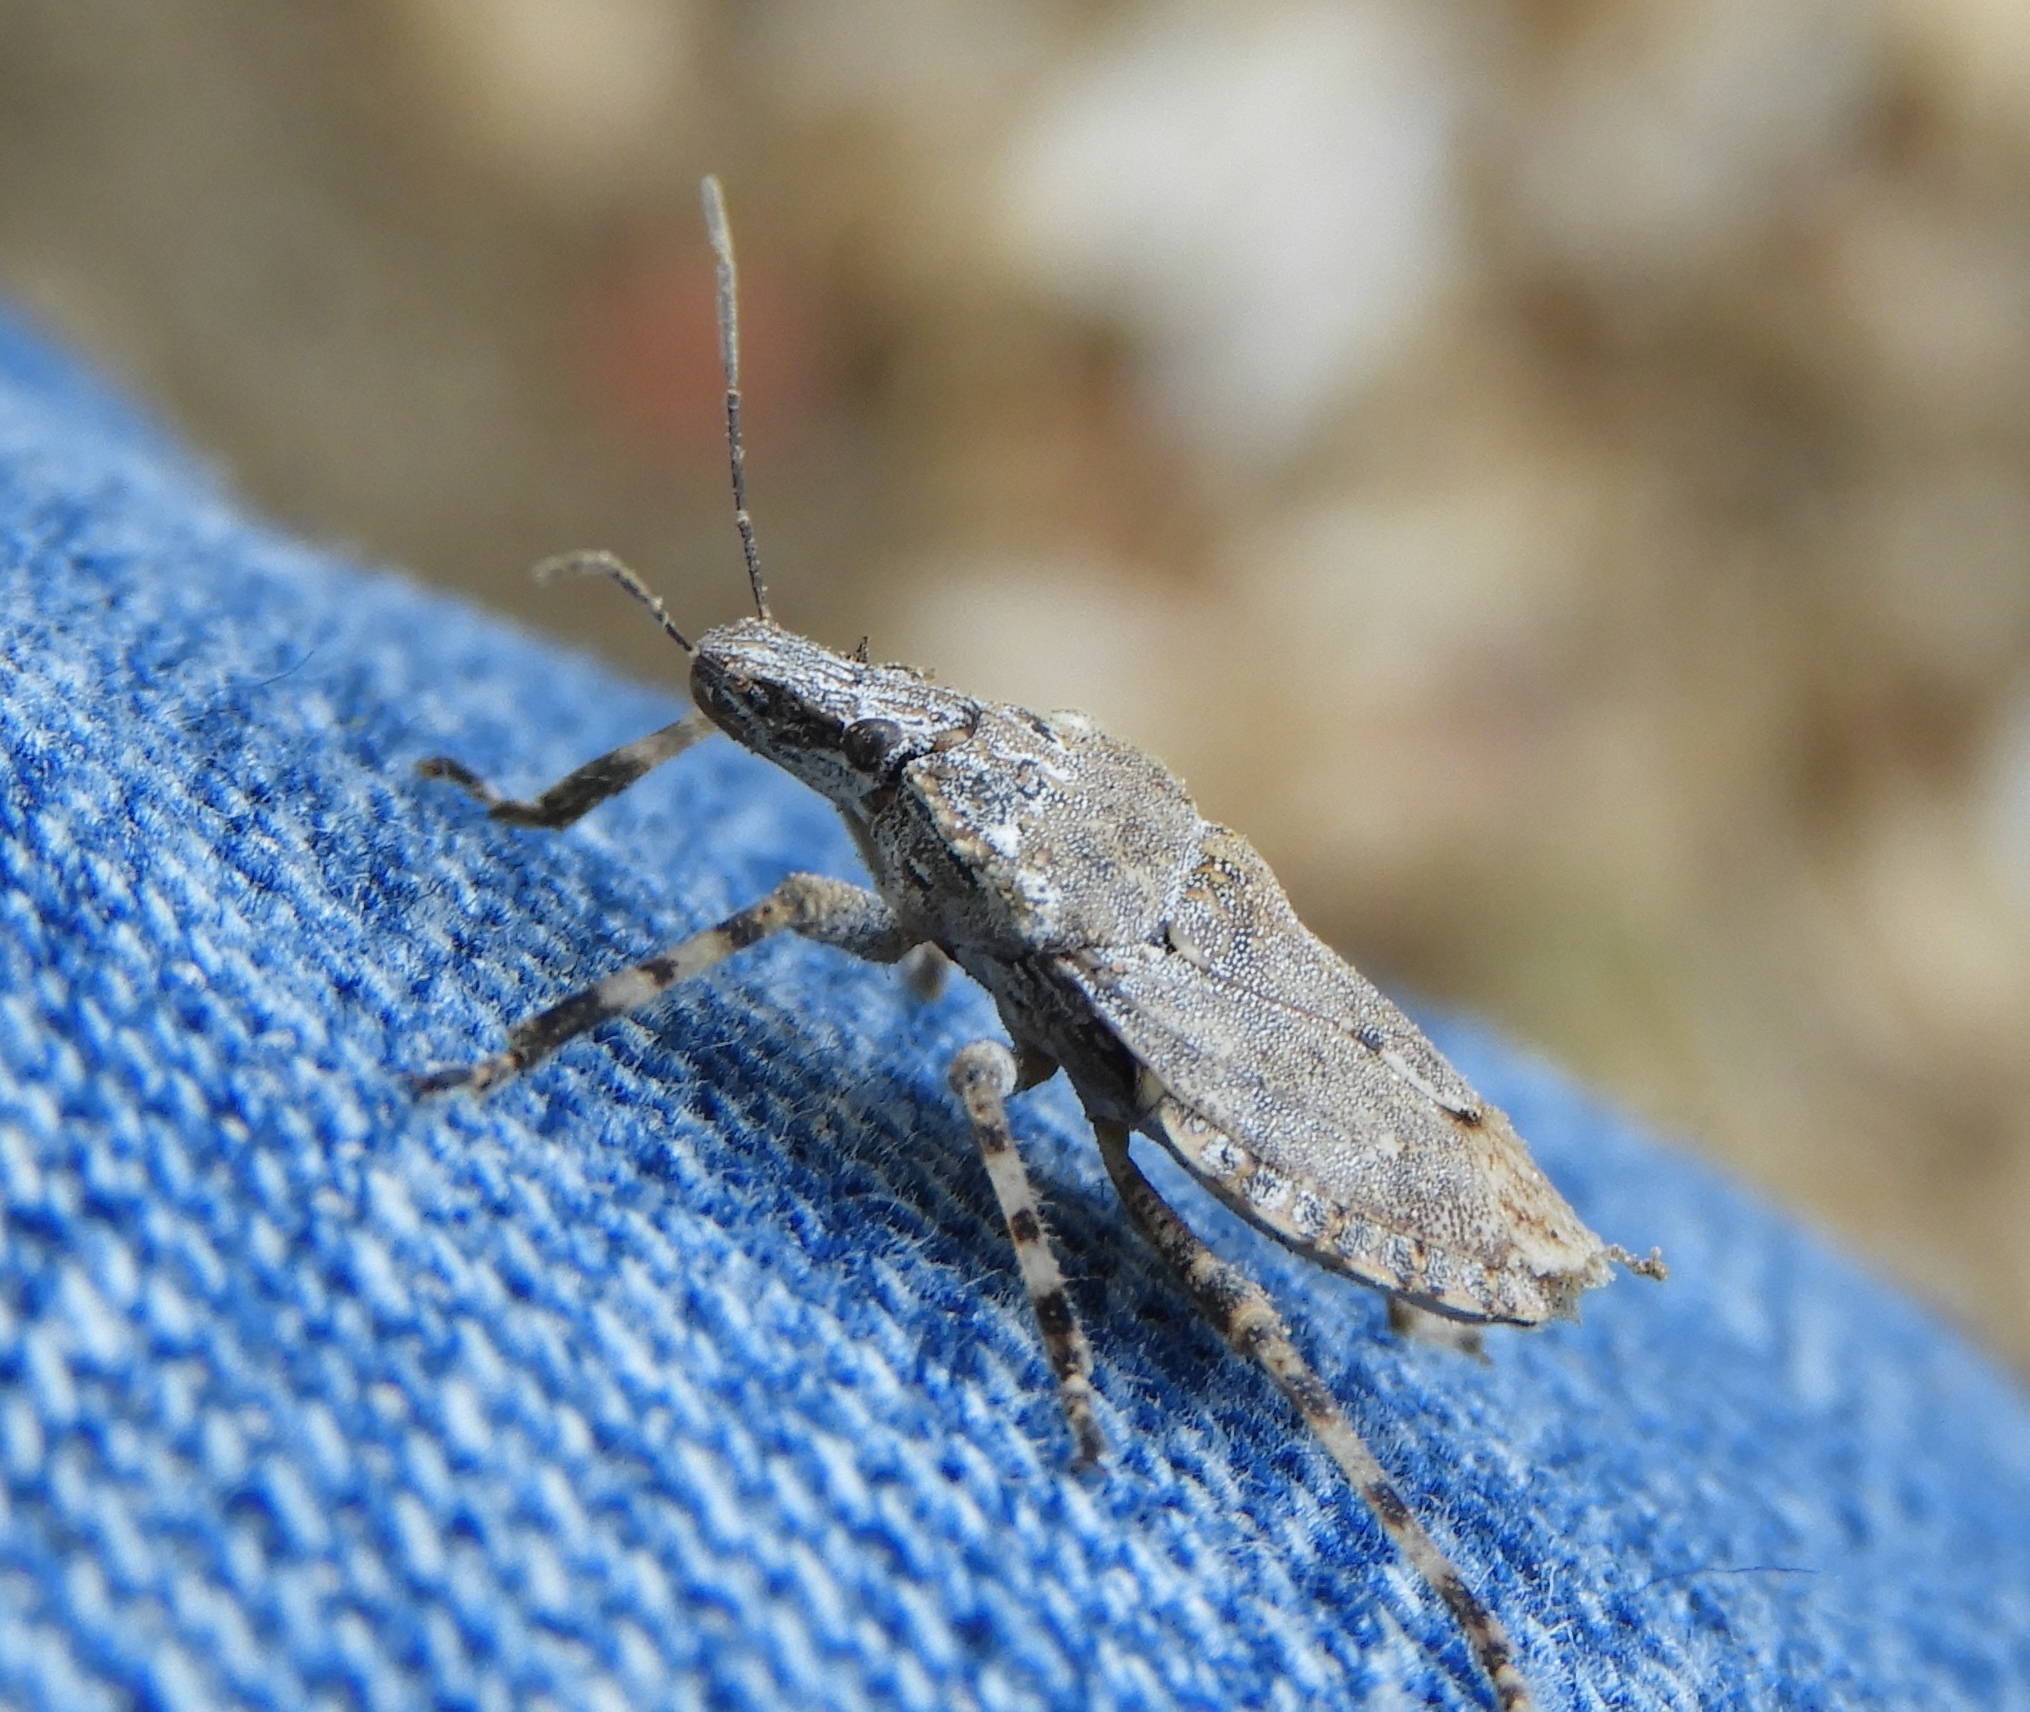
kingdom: Animalia
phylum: Arthropoda
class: Insecta
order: Hemiptera
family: Pentatomidae
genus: Brochymena
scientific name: Brochymena
